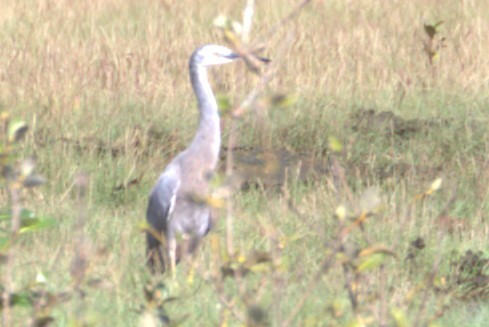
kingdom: Animalia
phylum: Chordata
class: Aves
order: Pelecaniformes
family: Ardeidae
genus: Egretta
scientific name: Egretta novaehollandiae
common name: White-faced heron
